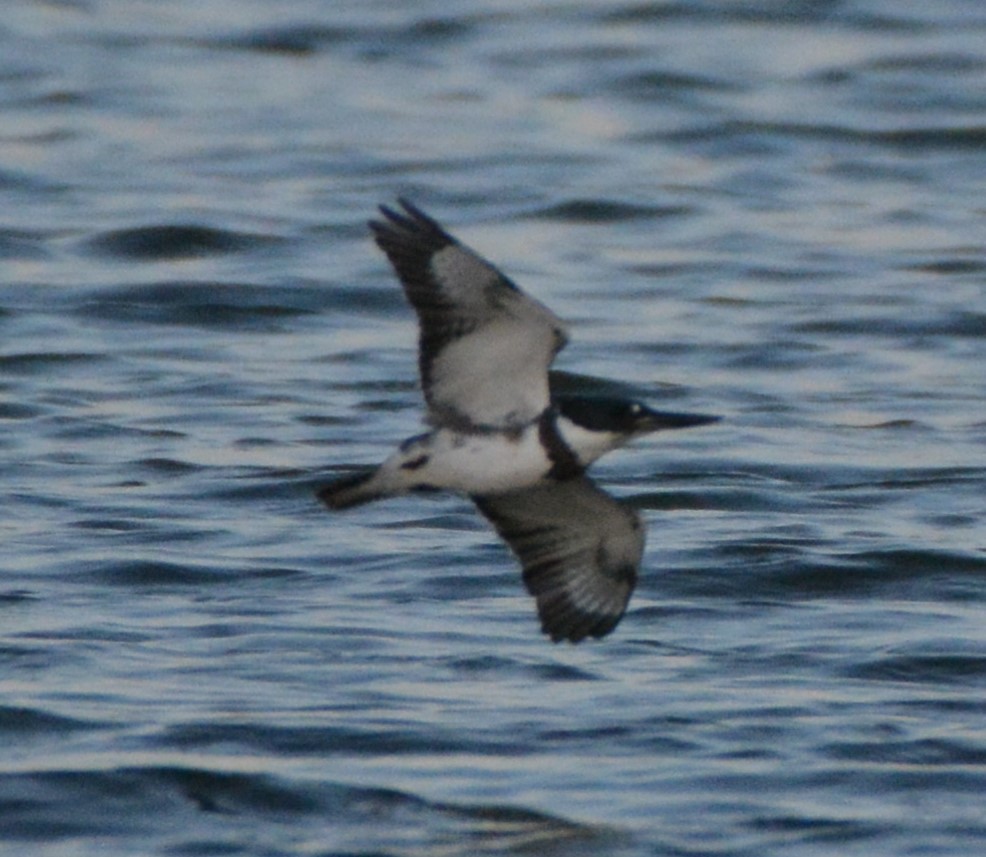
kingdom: Animalia
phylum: Chordata
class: Aves
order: Coraciiformes
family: Alcedinidae
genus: Megaceryle
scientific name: Megaceryle alcyon
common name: Belted kingfisher
